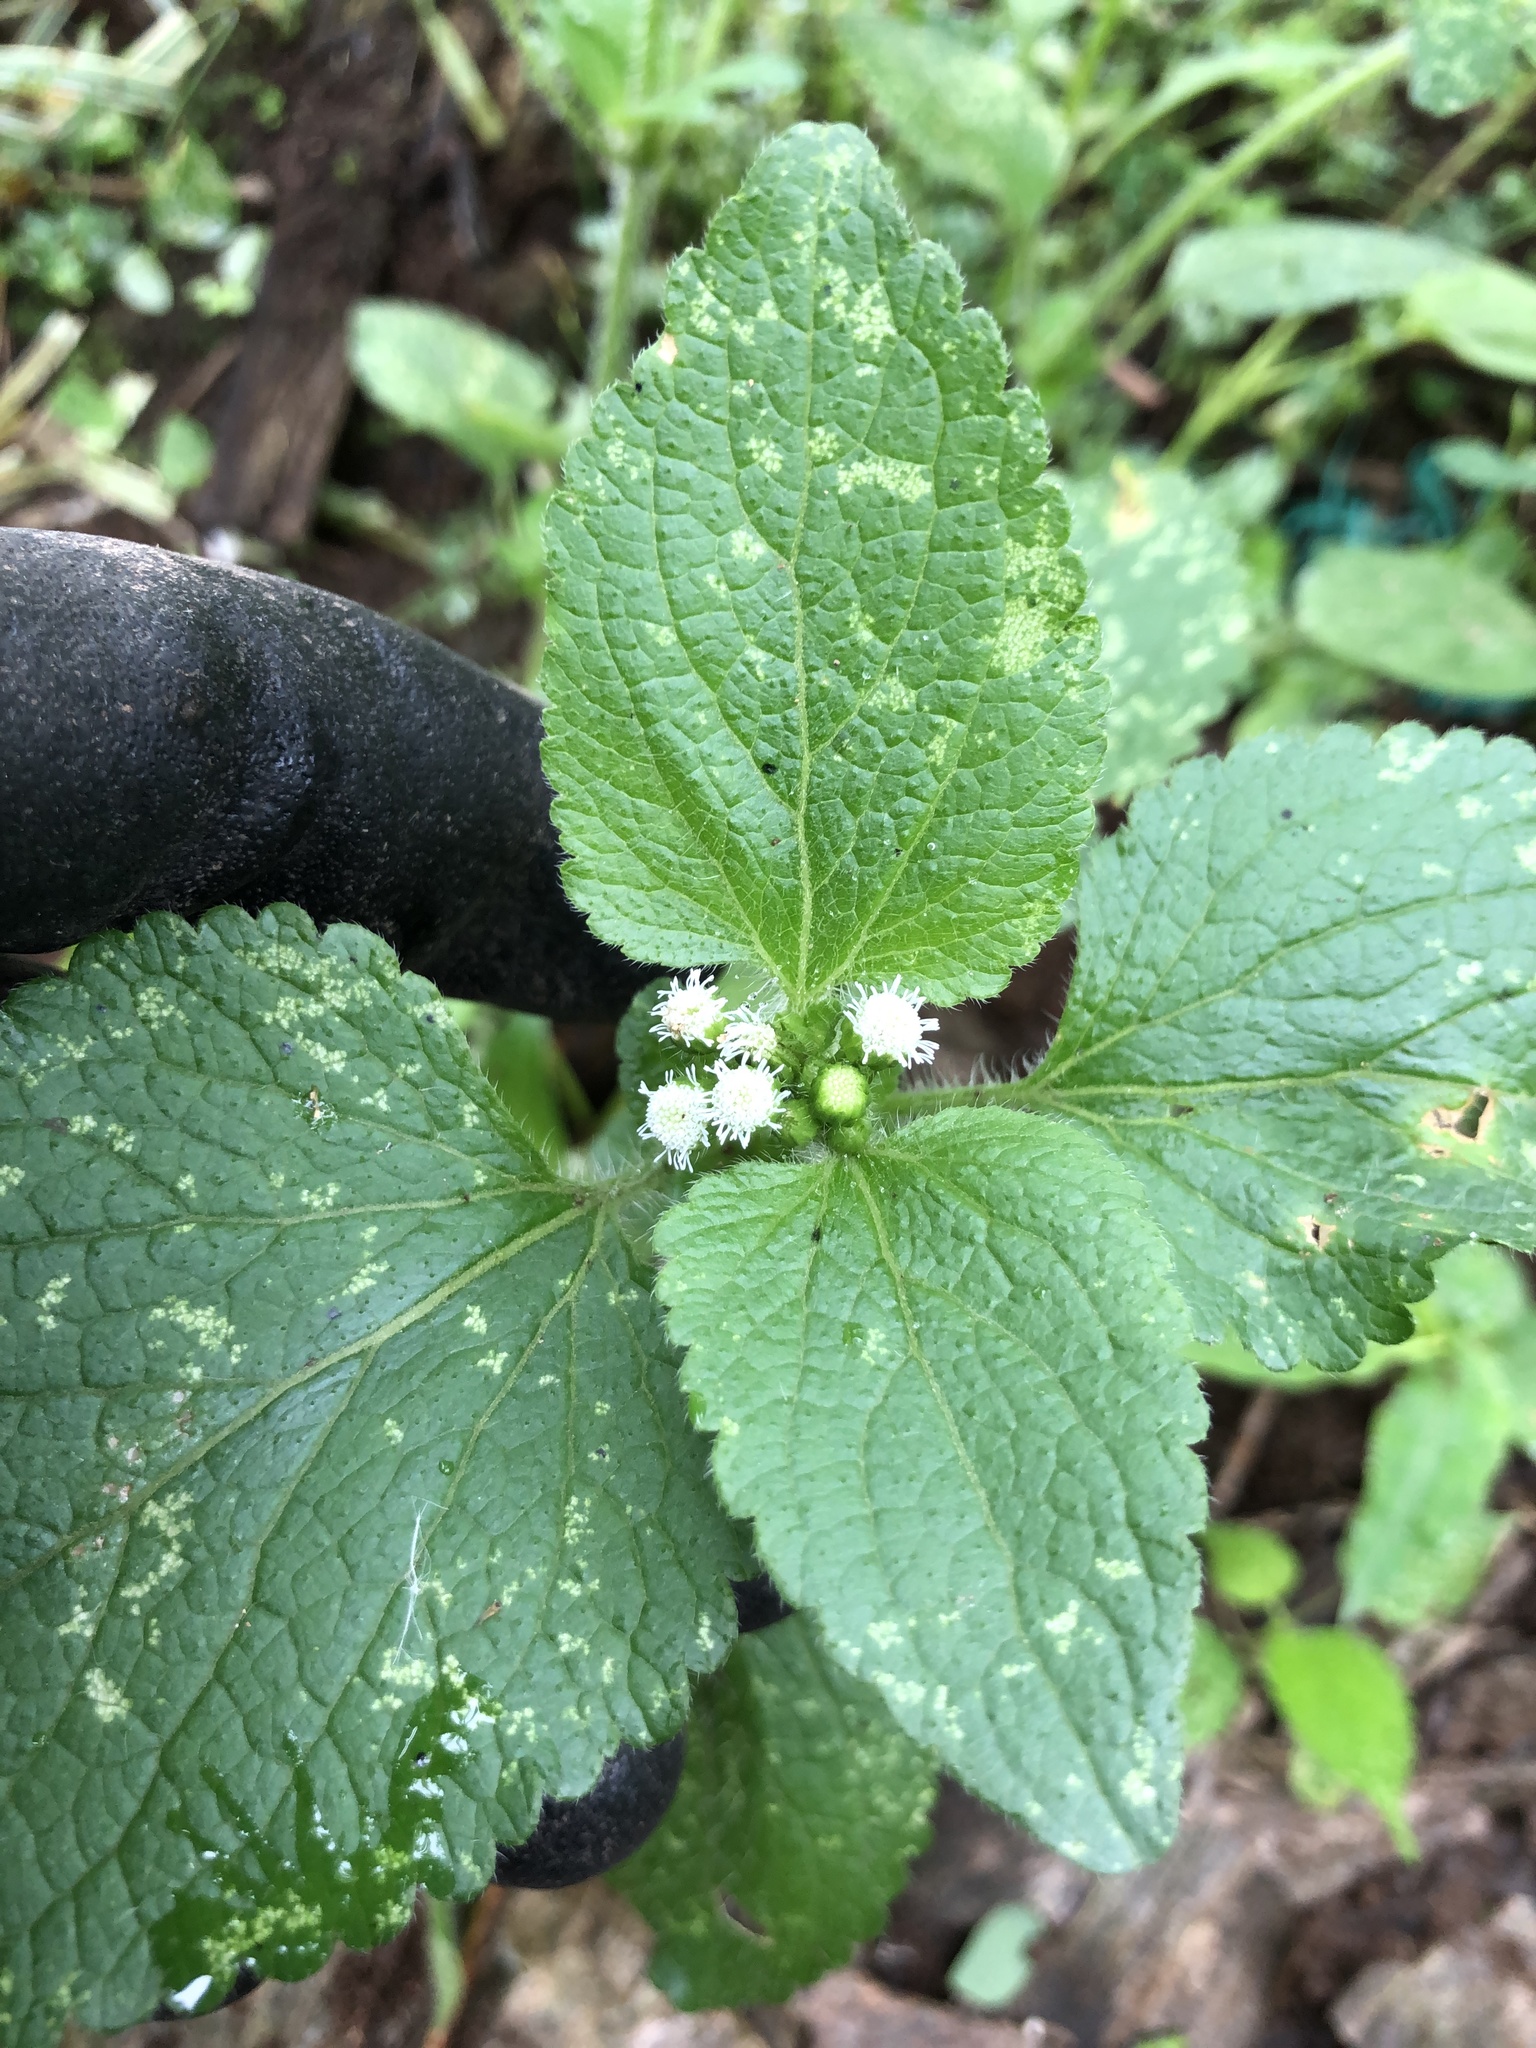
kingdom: Plantae
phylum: Tracheophyta
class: Magnoliopsida
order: Asterales
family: Asteraceae
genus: Ageratum
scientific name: Ageratum conyzoides
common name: Tropical whiteweed
